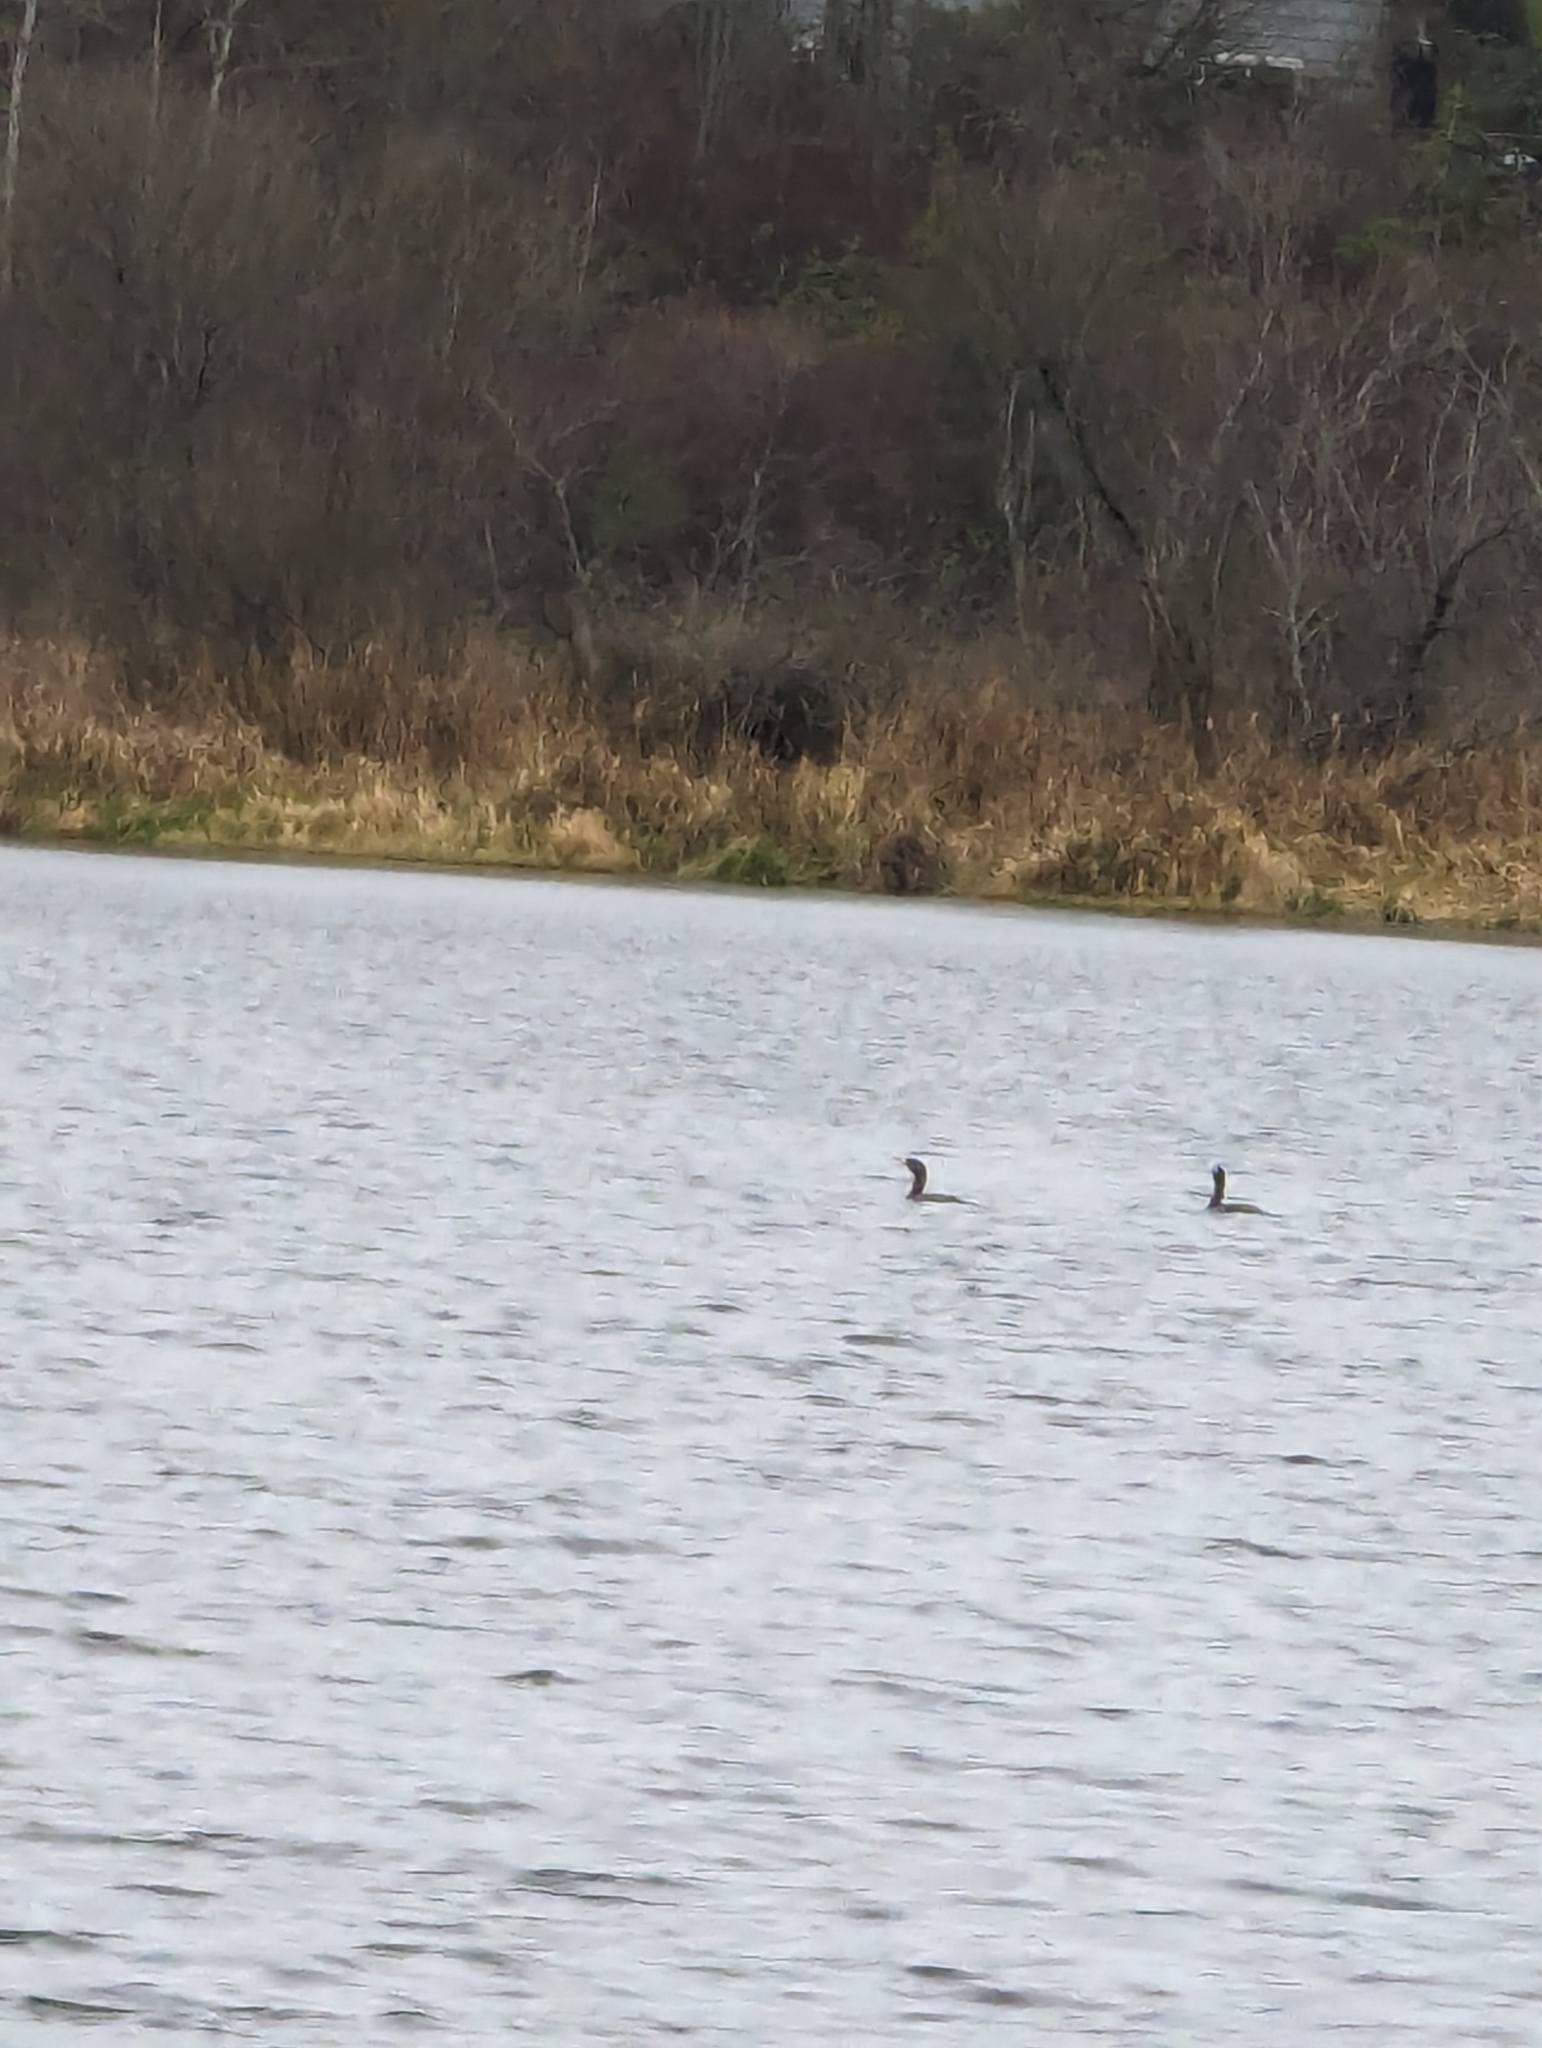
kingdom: Animalia
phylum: Chordata
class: Aves
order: Suliformes
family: Phalacrocoracidae
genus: Phalacrocorax
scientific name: Phalacrocorax auritus
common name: Double-crested cormorant
